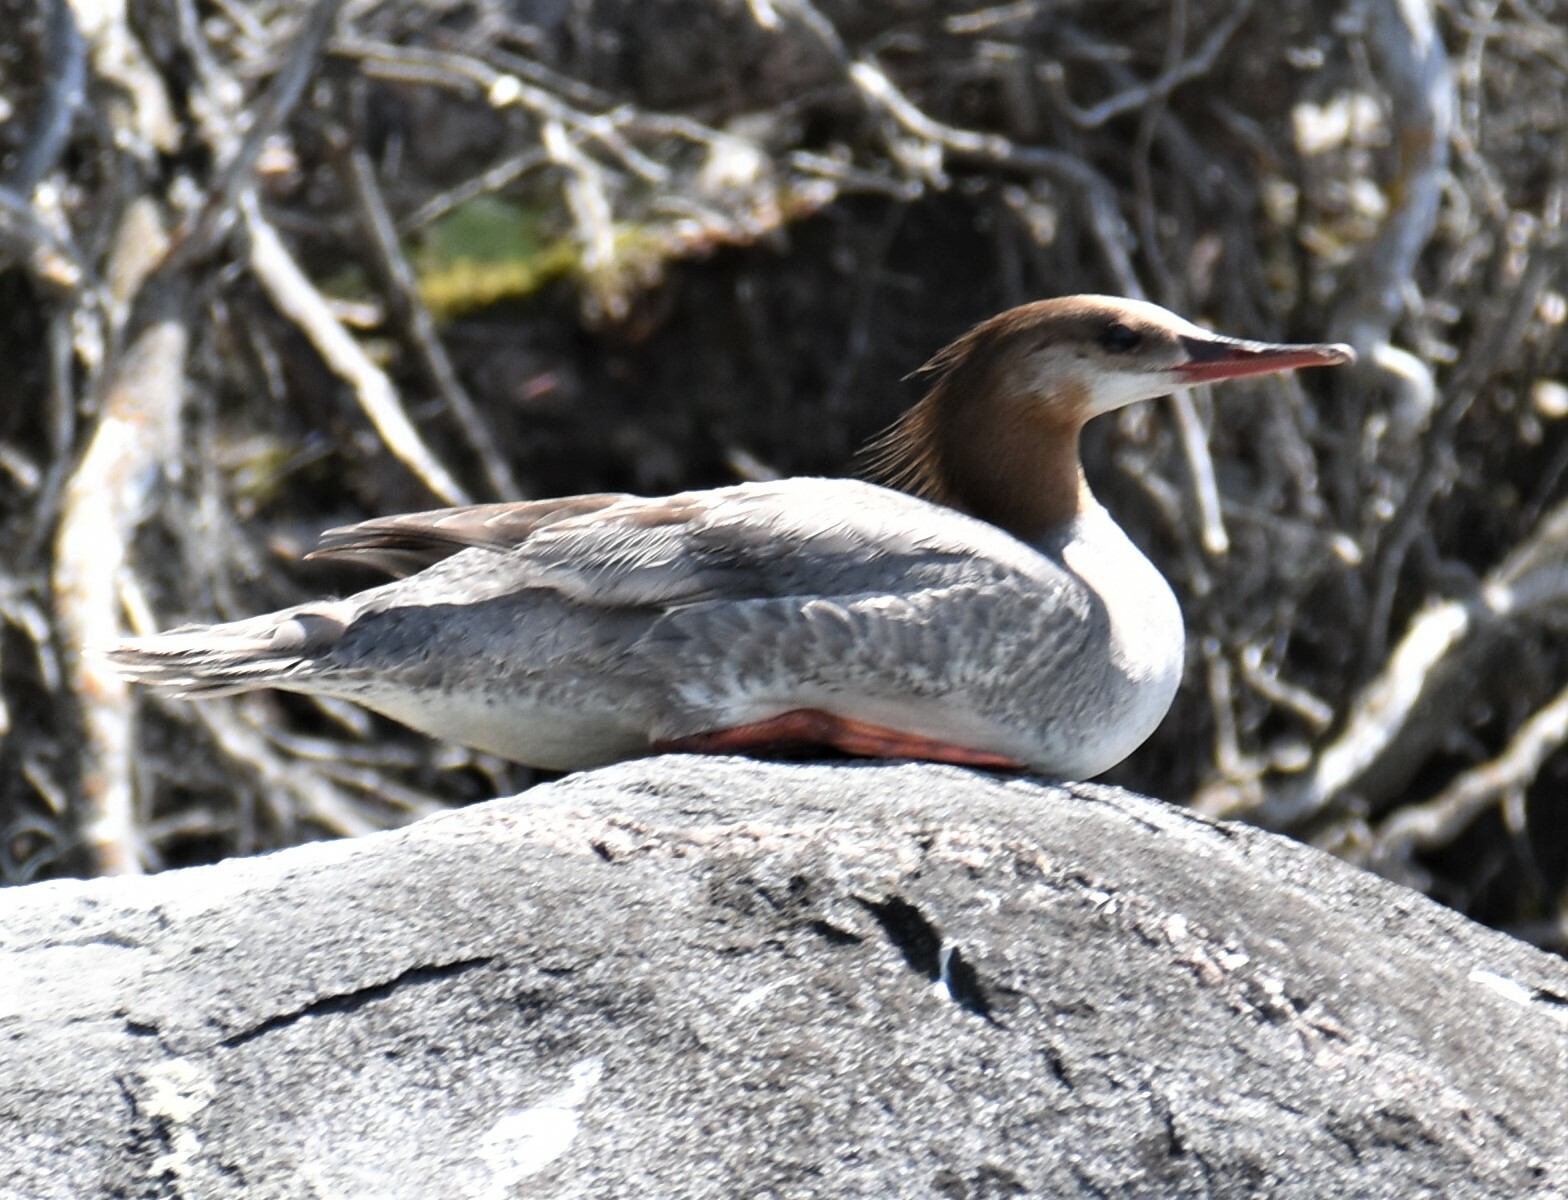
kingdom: Animalia
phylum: Chordata
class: Aves
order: Anseriformes
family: Anatidae
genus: Mergus
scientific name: Mergus merganser
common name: Common merganser
